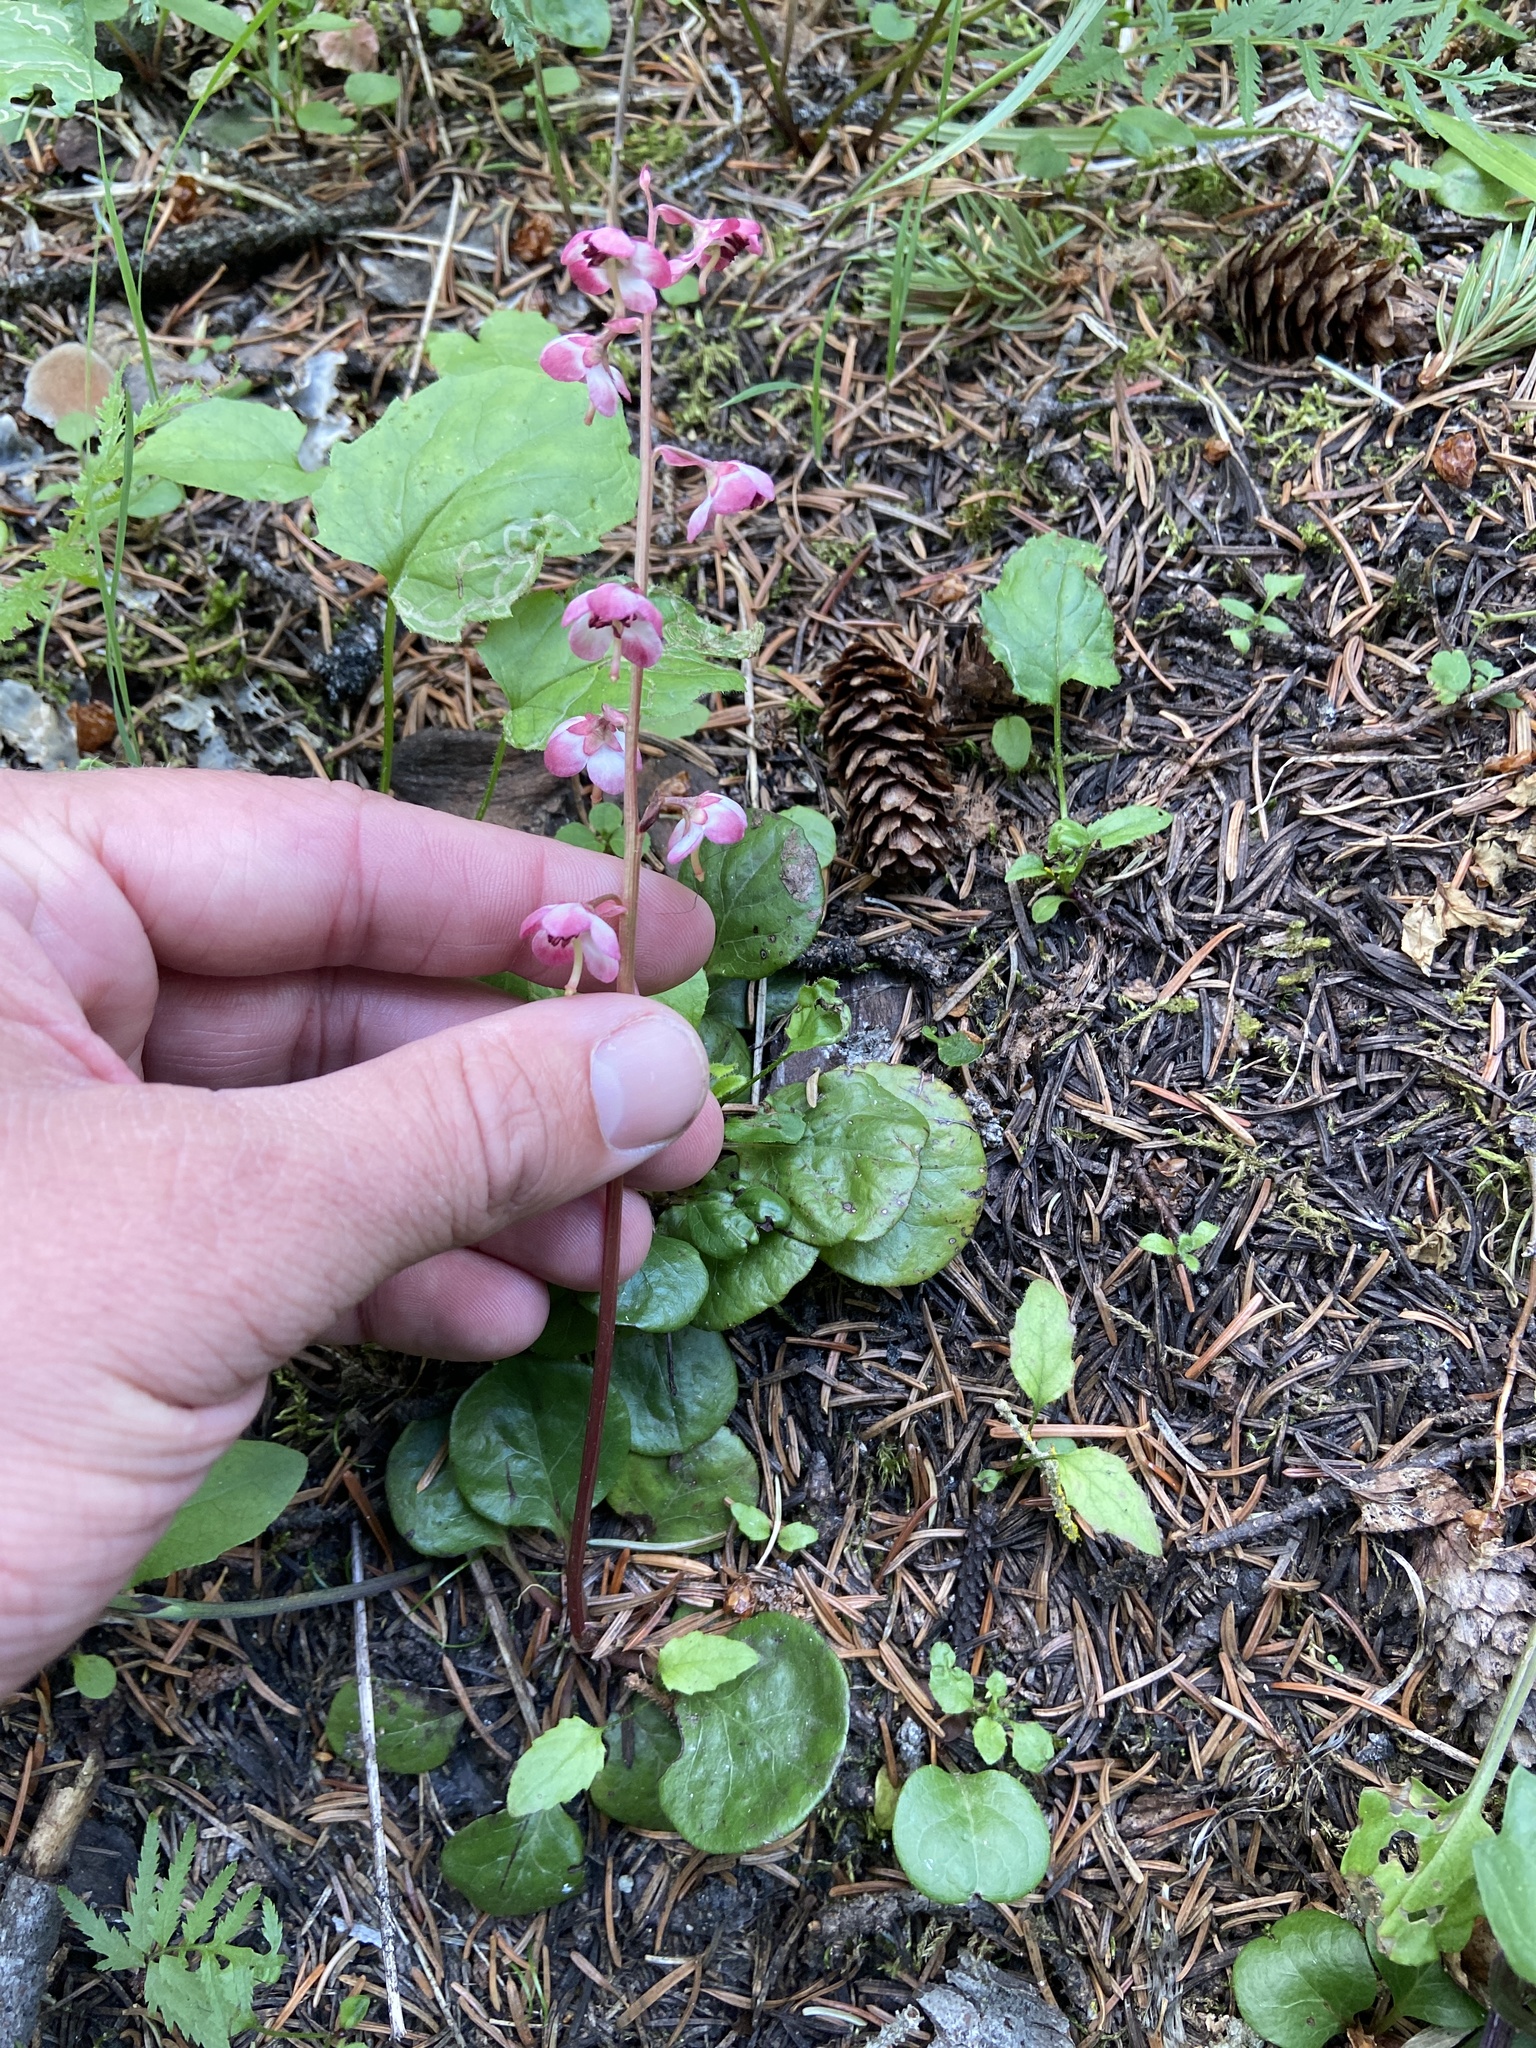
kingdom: Plantae
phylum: Tracheophyta
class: Magnoliopsida
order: Ericales
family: Ericaceae
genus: Pyrola
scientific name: Pyrola asarifolia
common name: Bog wintergreen
